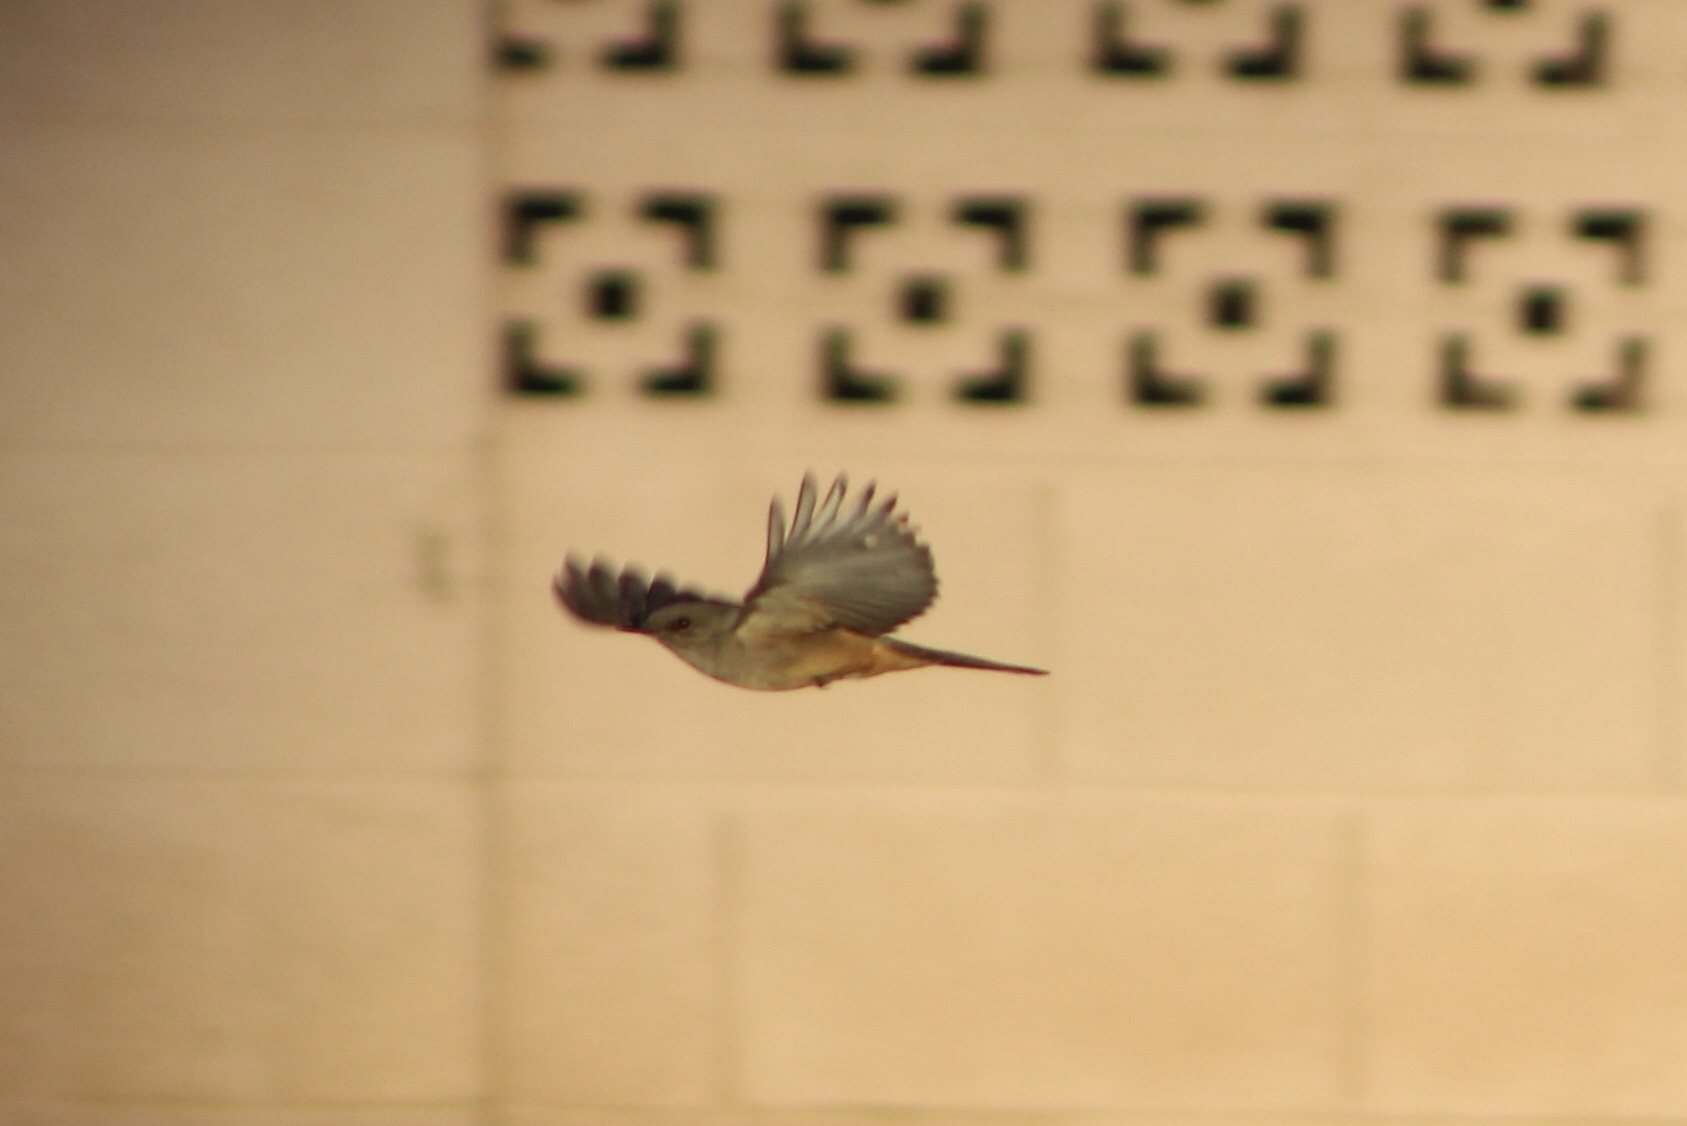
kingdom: Animalia
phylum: Chordata
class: Aves
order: Passeriformes
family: Tyrannidae
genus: Sayornis
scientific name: Sayornis saya
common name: Say's phoebe
